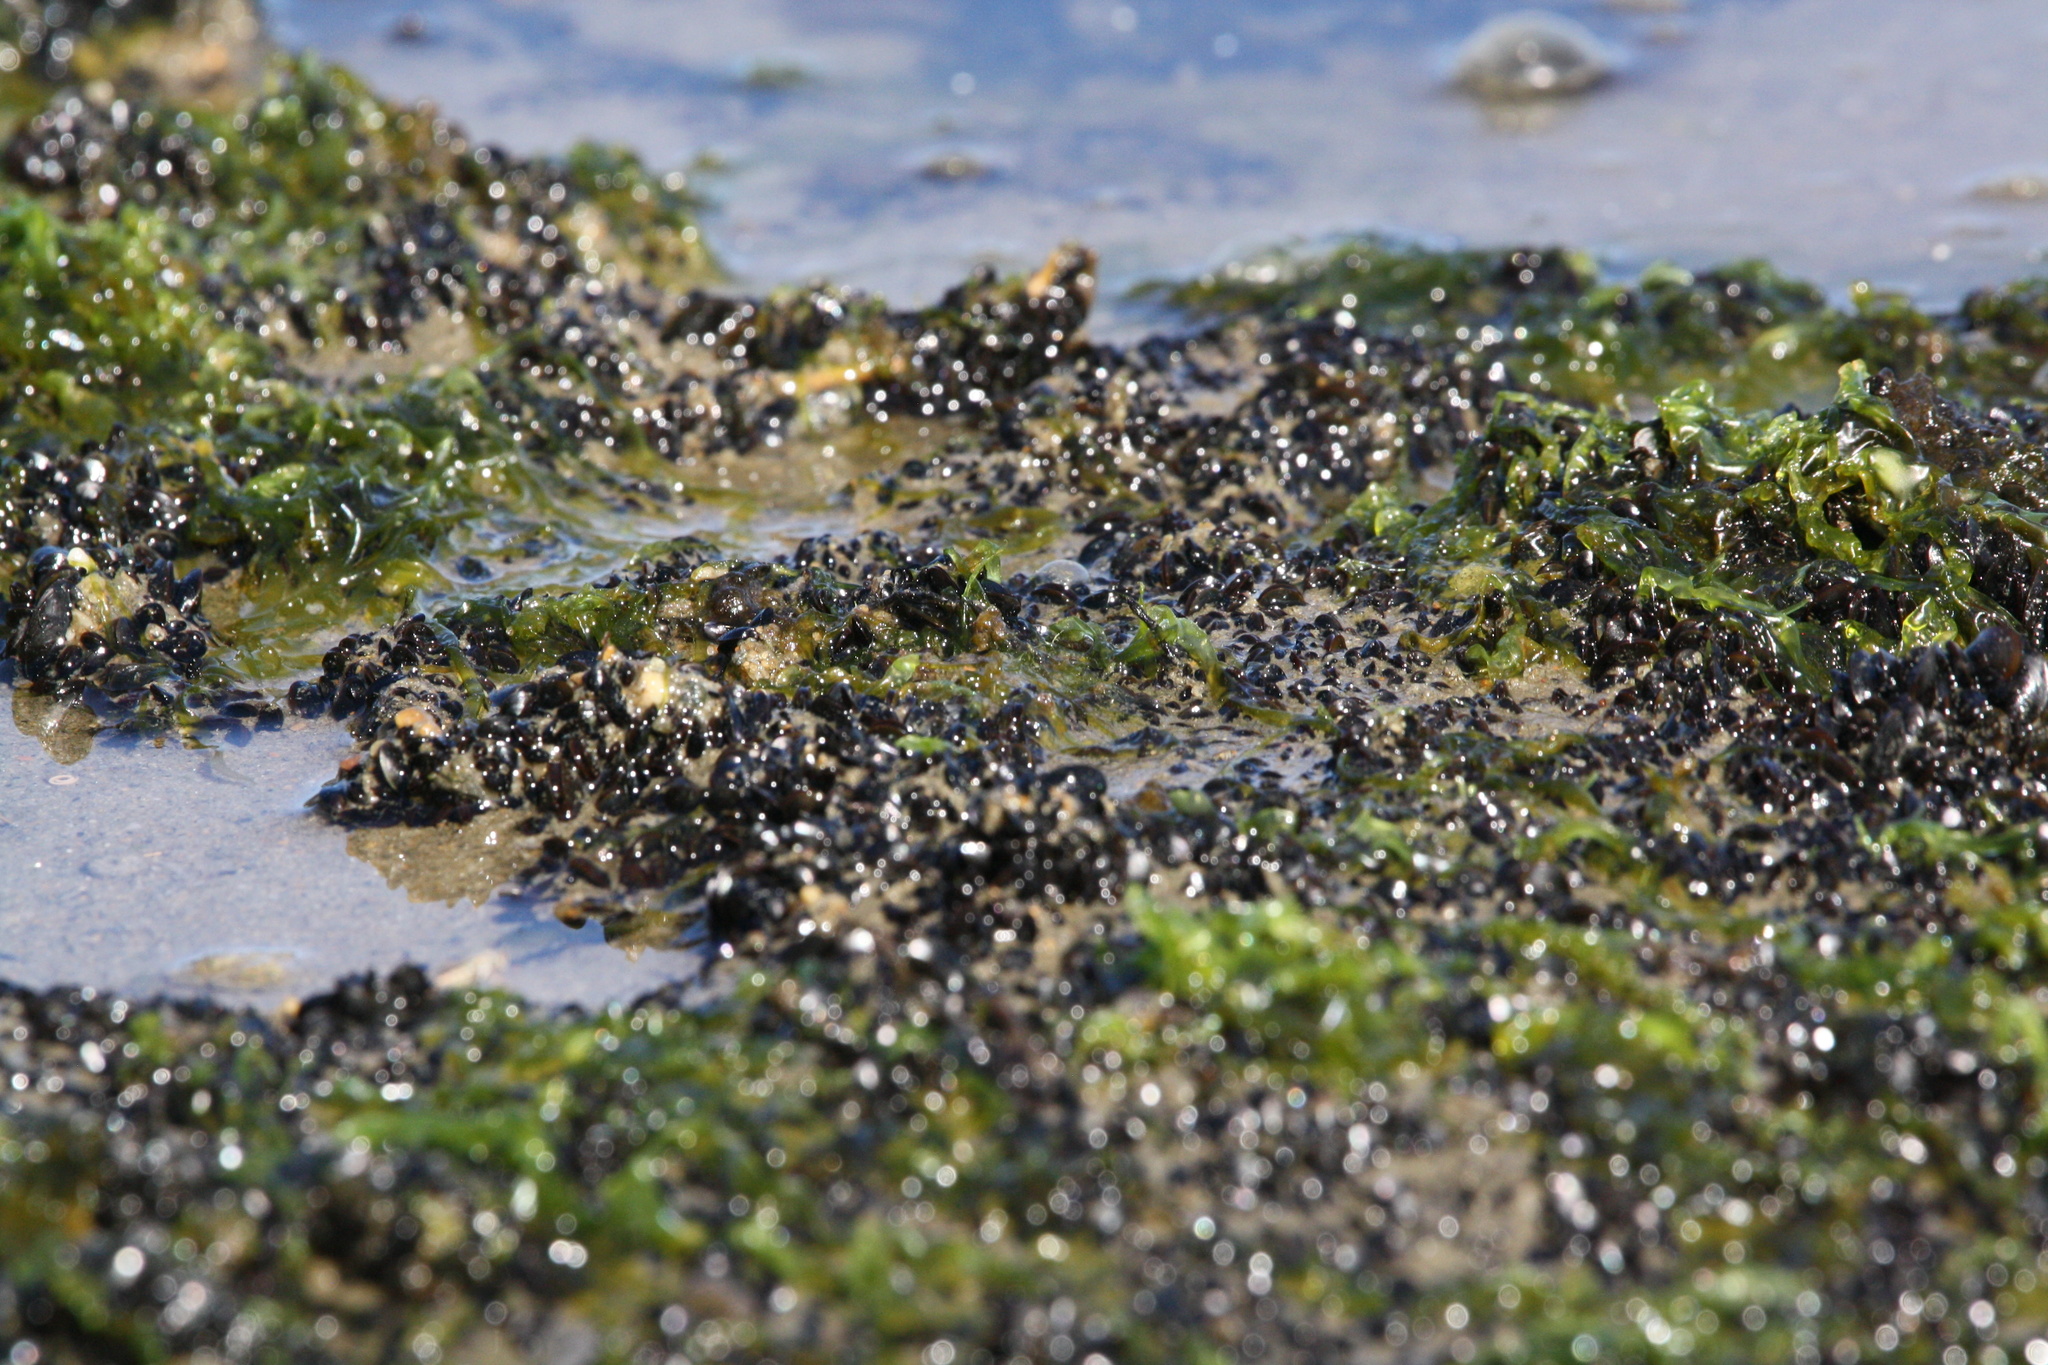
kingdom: Animalia
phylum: Mollusca
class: Bivalvia
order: Mytilida
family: Mytilidae
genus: Mytilus
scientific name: Mytilus edulis
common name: Blue mussel
